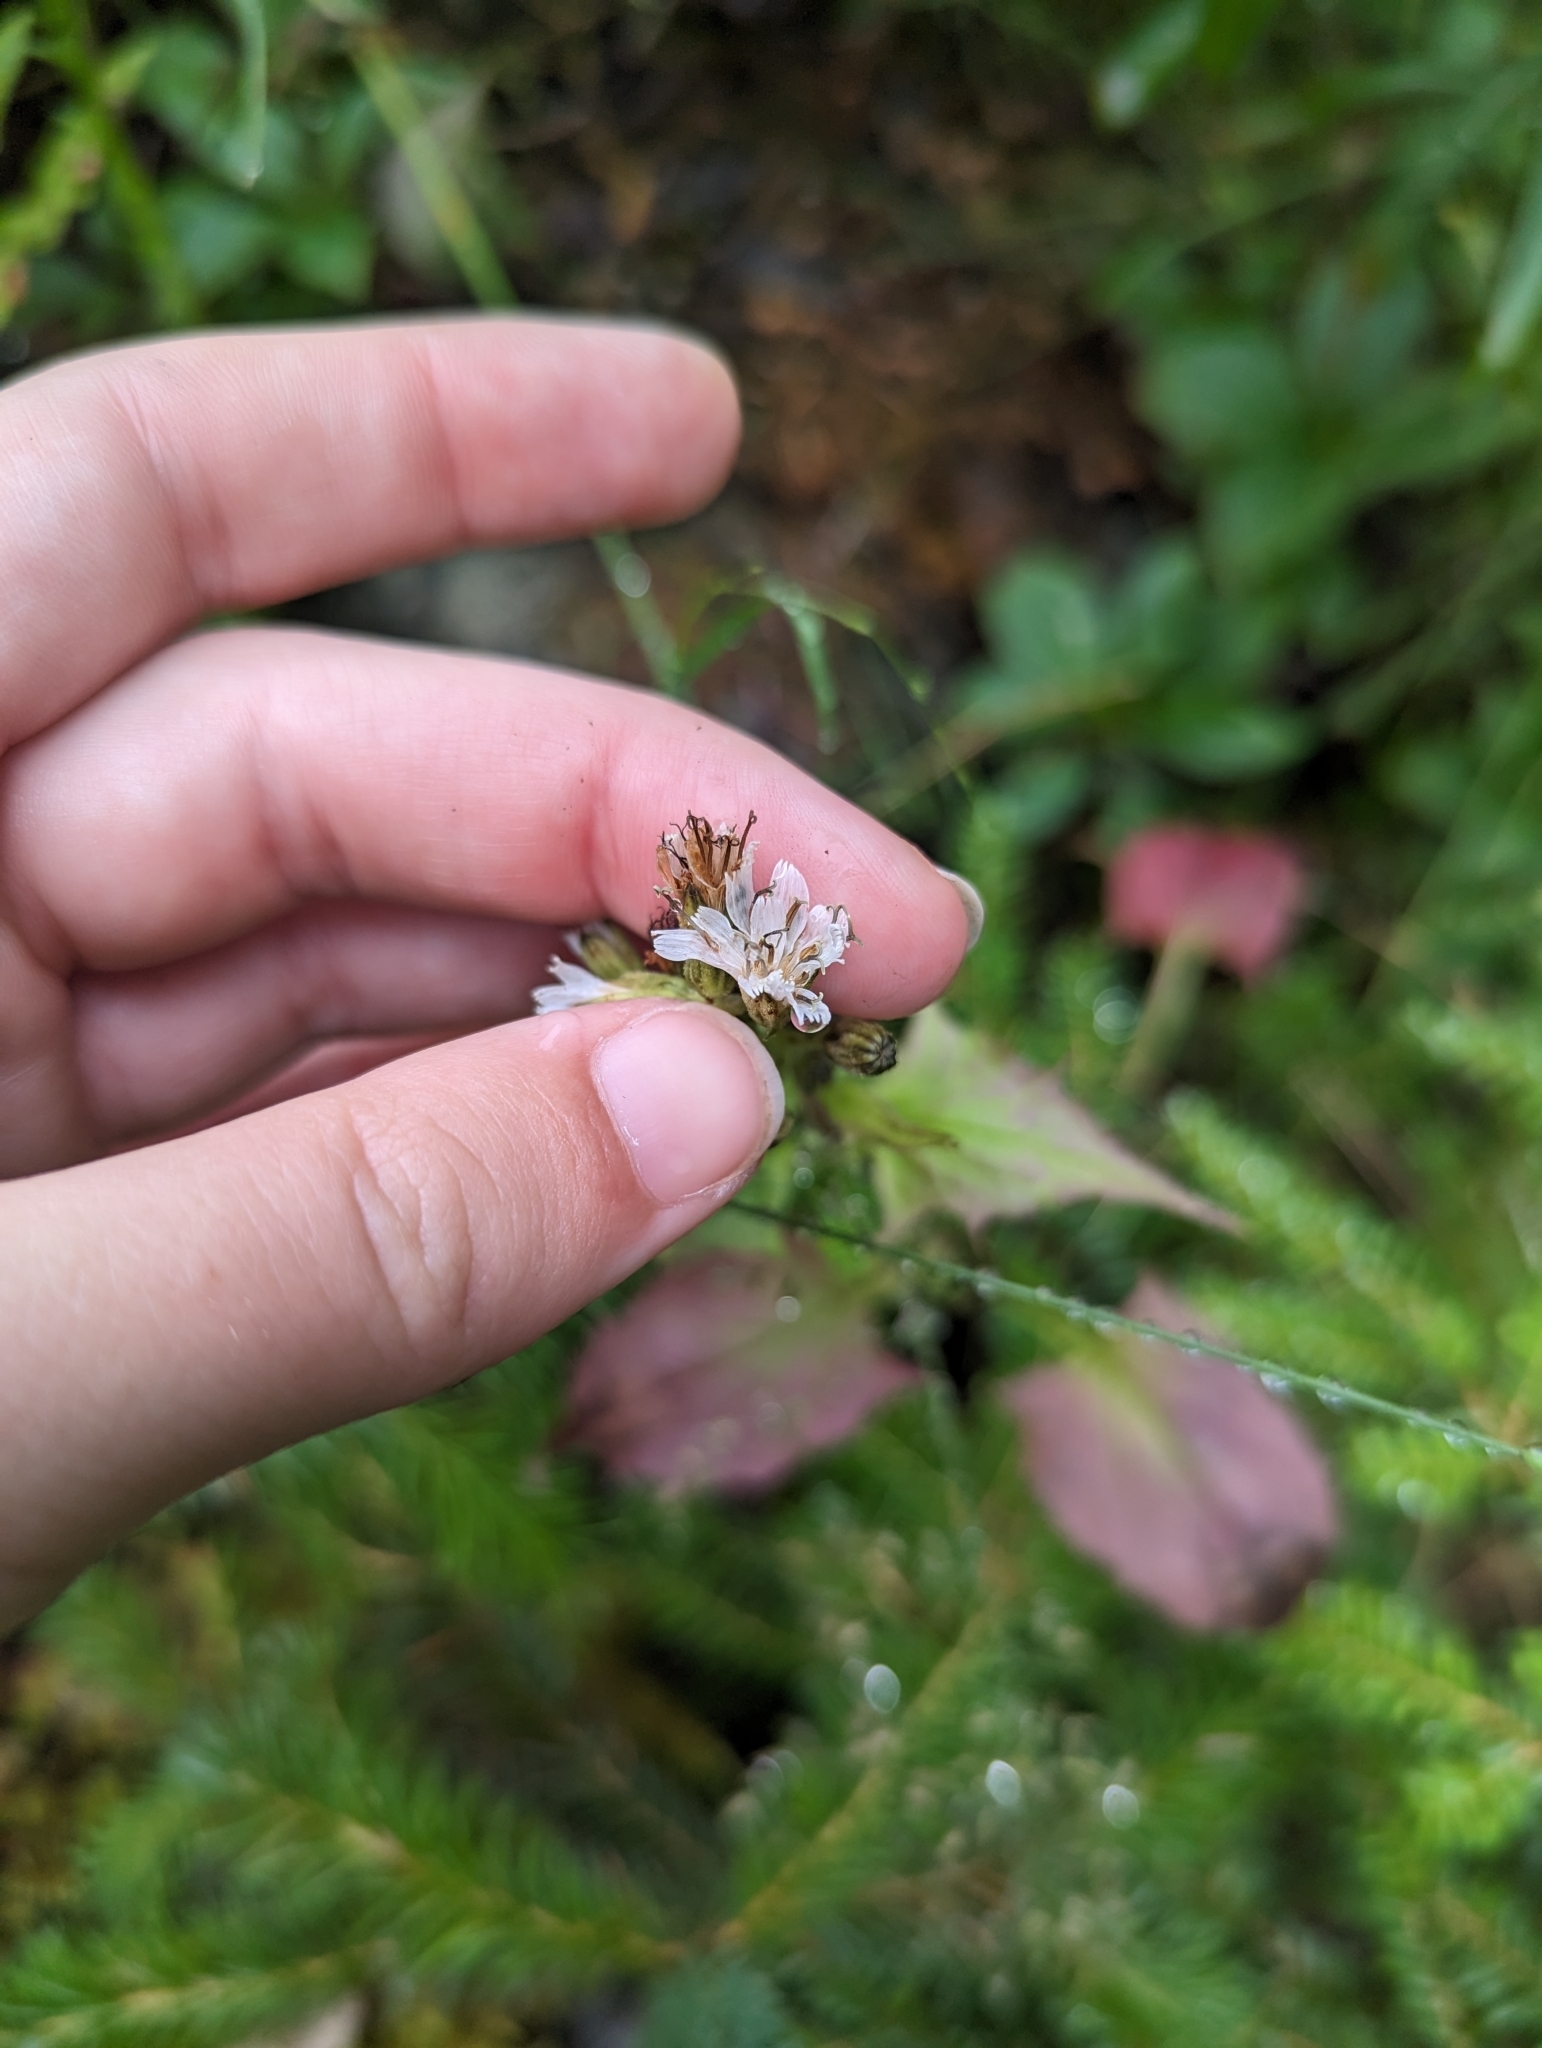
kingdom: Plantae
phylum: Tracheophyta
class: Magnoliopsida
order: Asterales
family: Asteraceae
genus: Nabalus
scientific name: Nabalus hastatus
